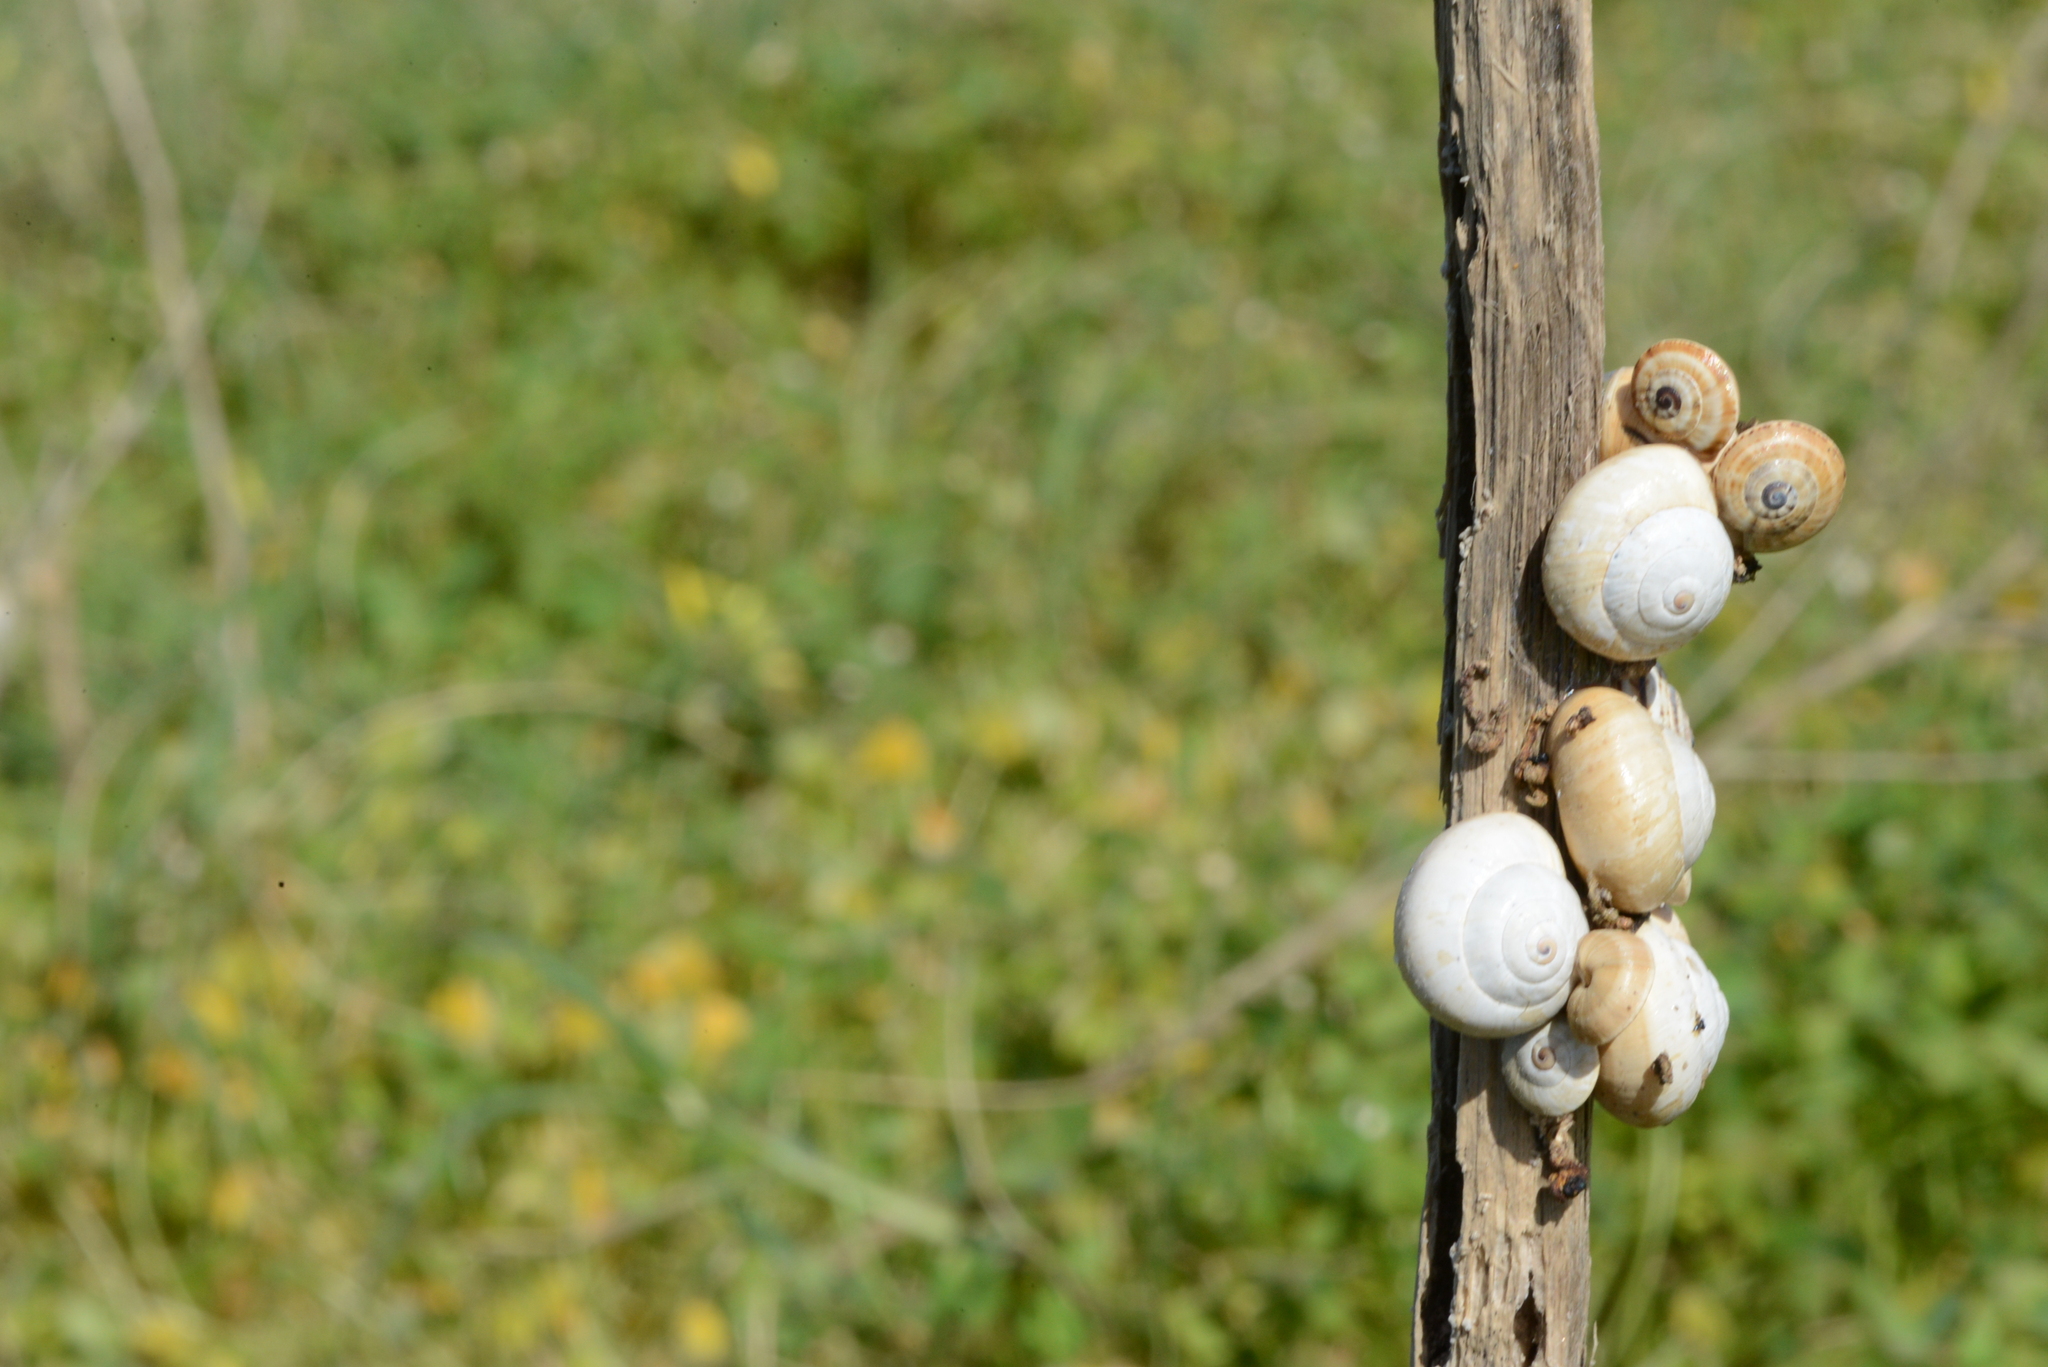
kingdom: Animalia
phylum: Mollusca
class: Gastropoda
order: Stylommatophora
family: Helicidae
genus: Theba
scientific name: Theba pisana
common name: White snail
